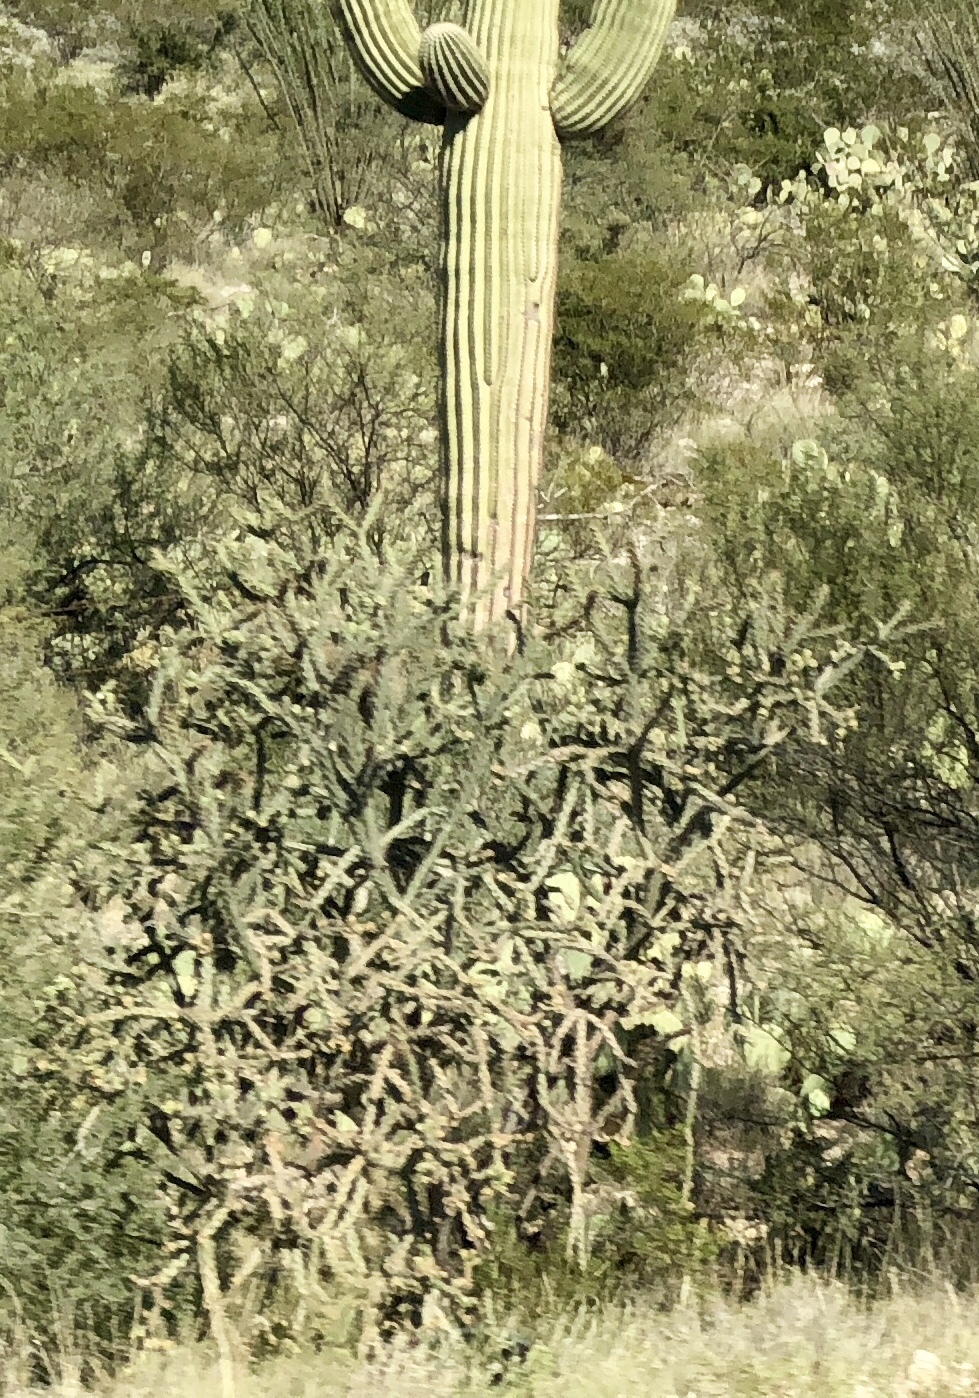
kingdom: Plantae
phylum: Tracheophyta
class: Magnoliopsida
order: Caryophyllales
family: Cactaceae
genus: Cylindropuntia
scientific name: Cylindropuntia imbricata
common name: Candelabrum cactus
